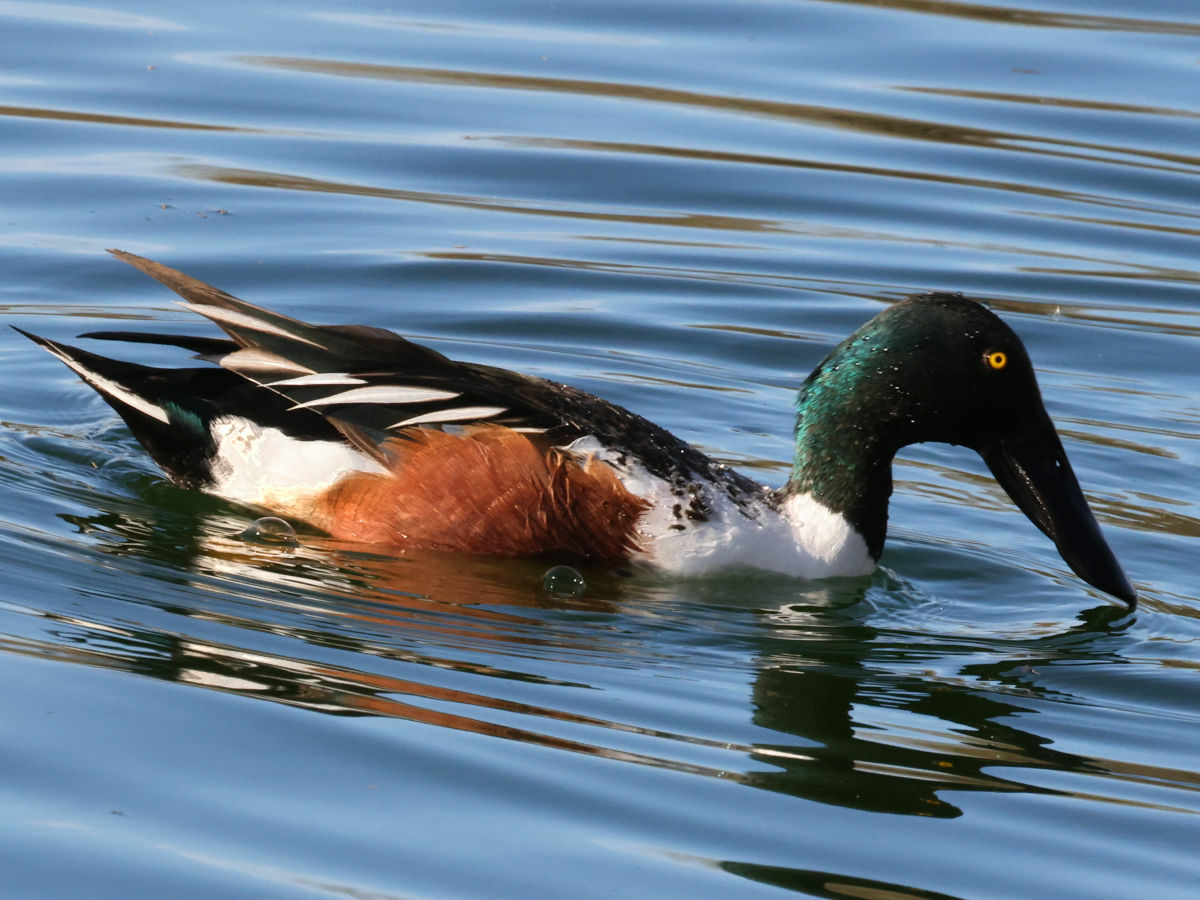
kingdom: Animalia
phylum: Chordata
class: Aves
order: Anseriformes
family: Anatidae
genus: Spatula
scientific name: Spatula clypeata
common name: Northern shoveler
